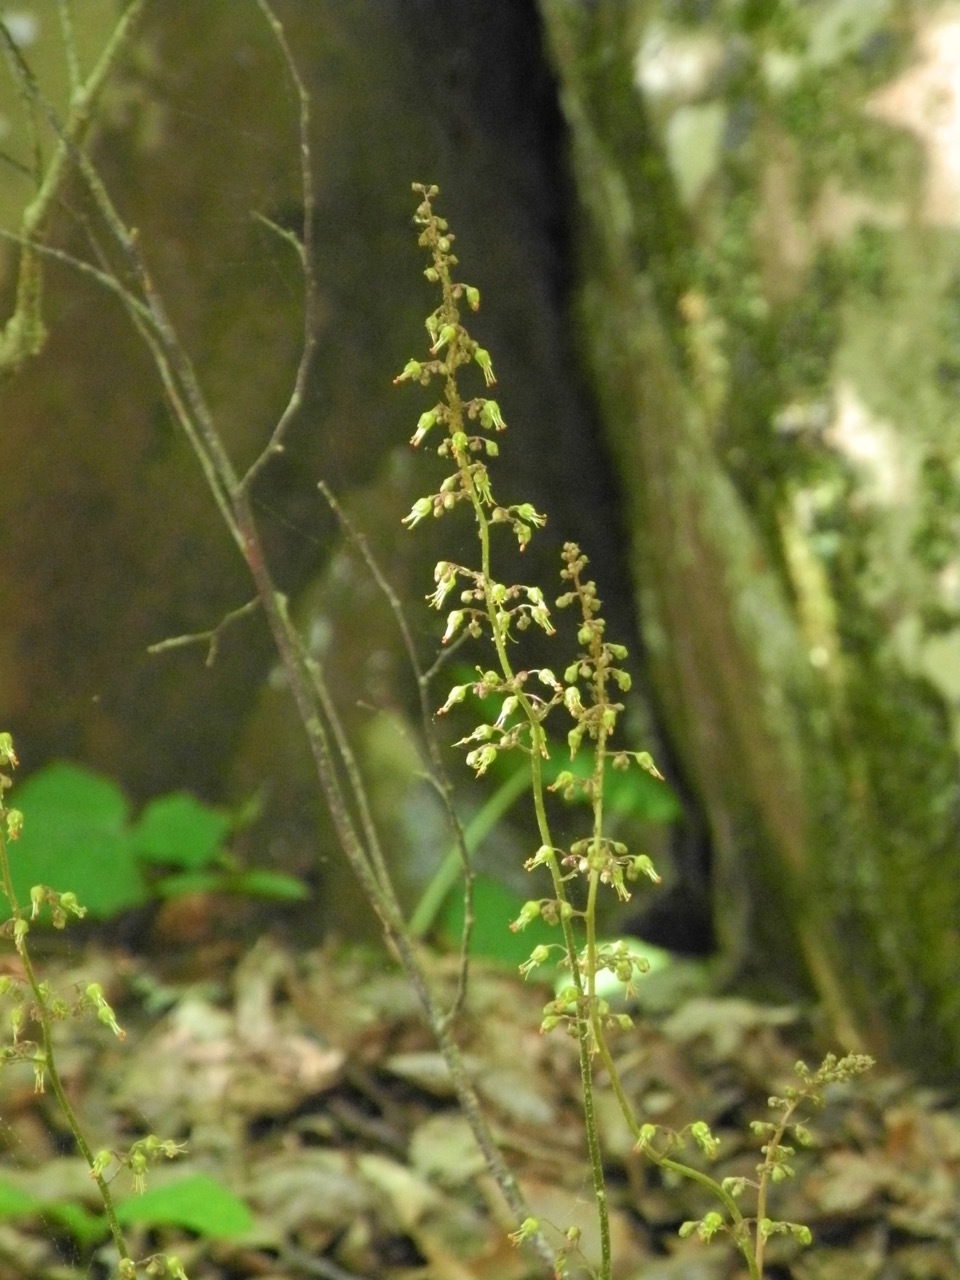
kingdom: Plantae
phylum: Tracheophyta
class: Magnoliopsida
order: Saxifragales
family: Saxifragaceae
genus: Heuchera
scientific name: Heuchera americana
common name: Alumroot
